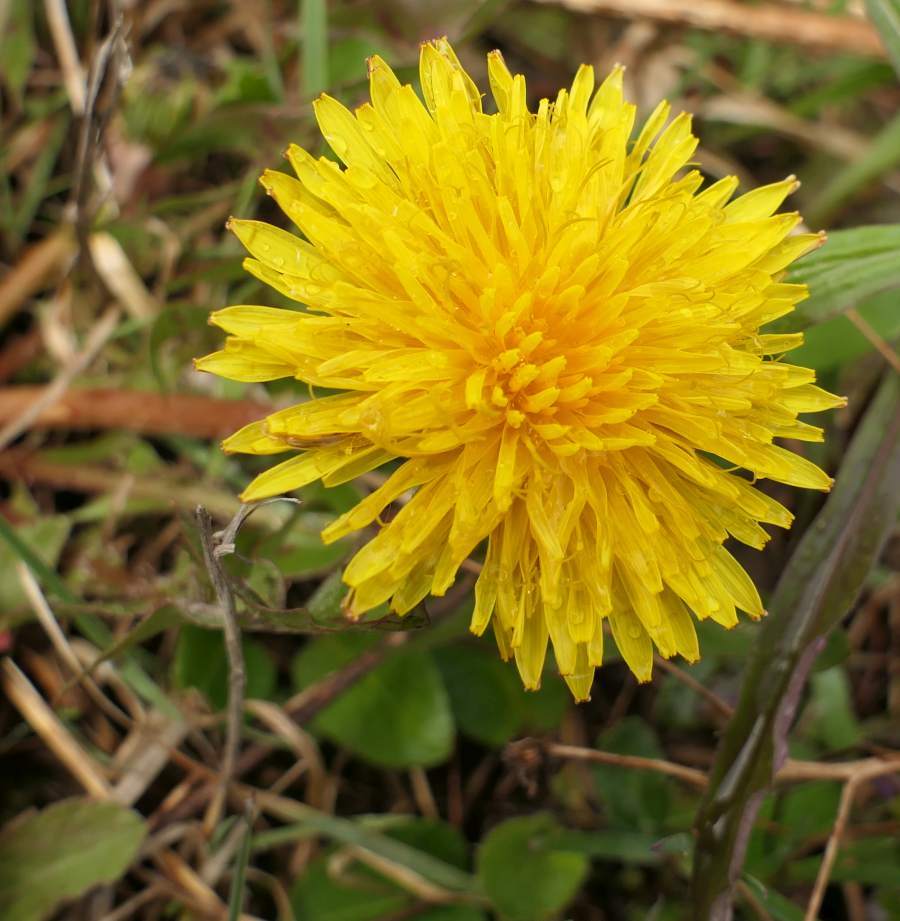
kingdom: Plantae
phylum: Tracheophyta
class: Magnoliopsida
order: Asterales
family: Asteraceae
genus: Taraxacum
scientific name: Taraxacum officinale
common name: Common dandelion
